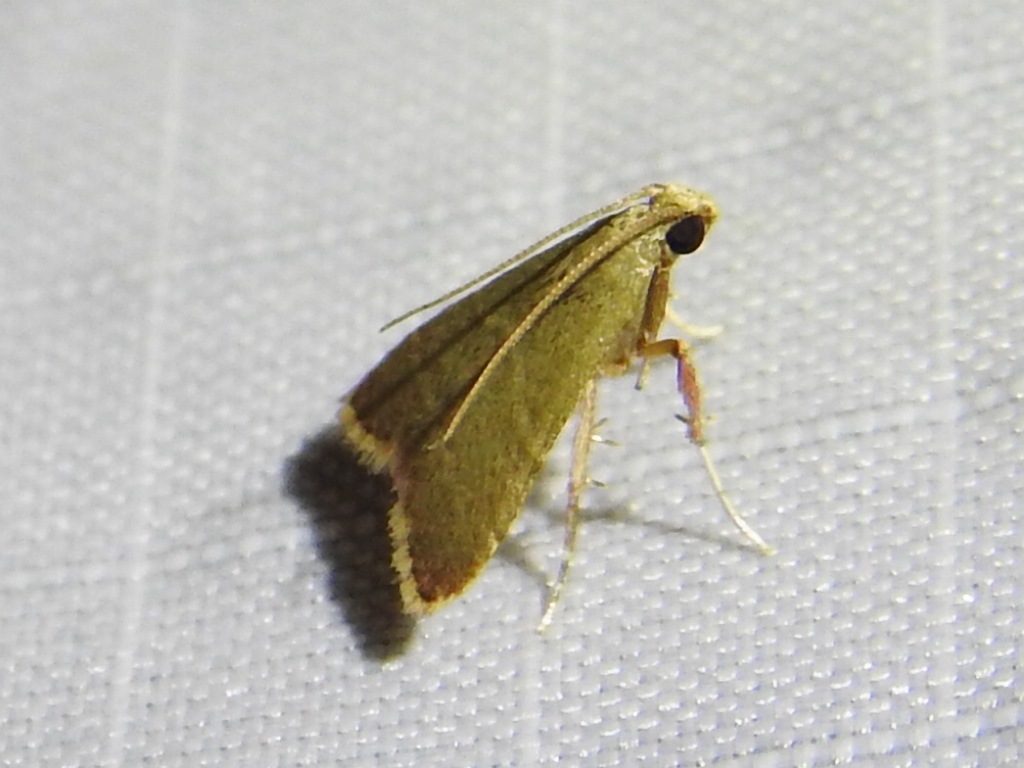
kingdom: Animalia
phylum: Arthropoda
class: Insecta
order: Lepidoptera
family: Pyralidae
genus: Arta
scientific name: Arta olivalis
